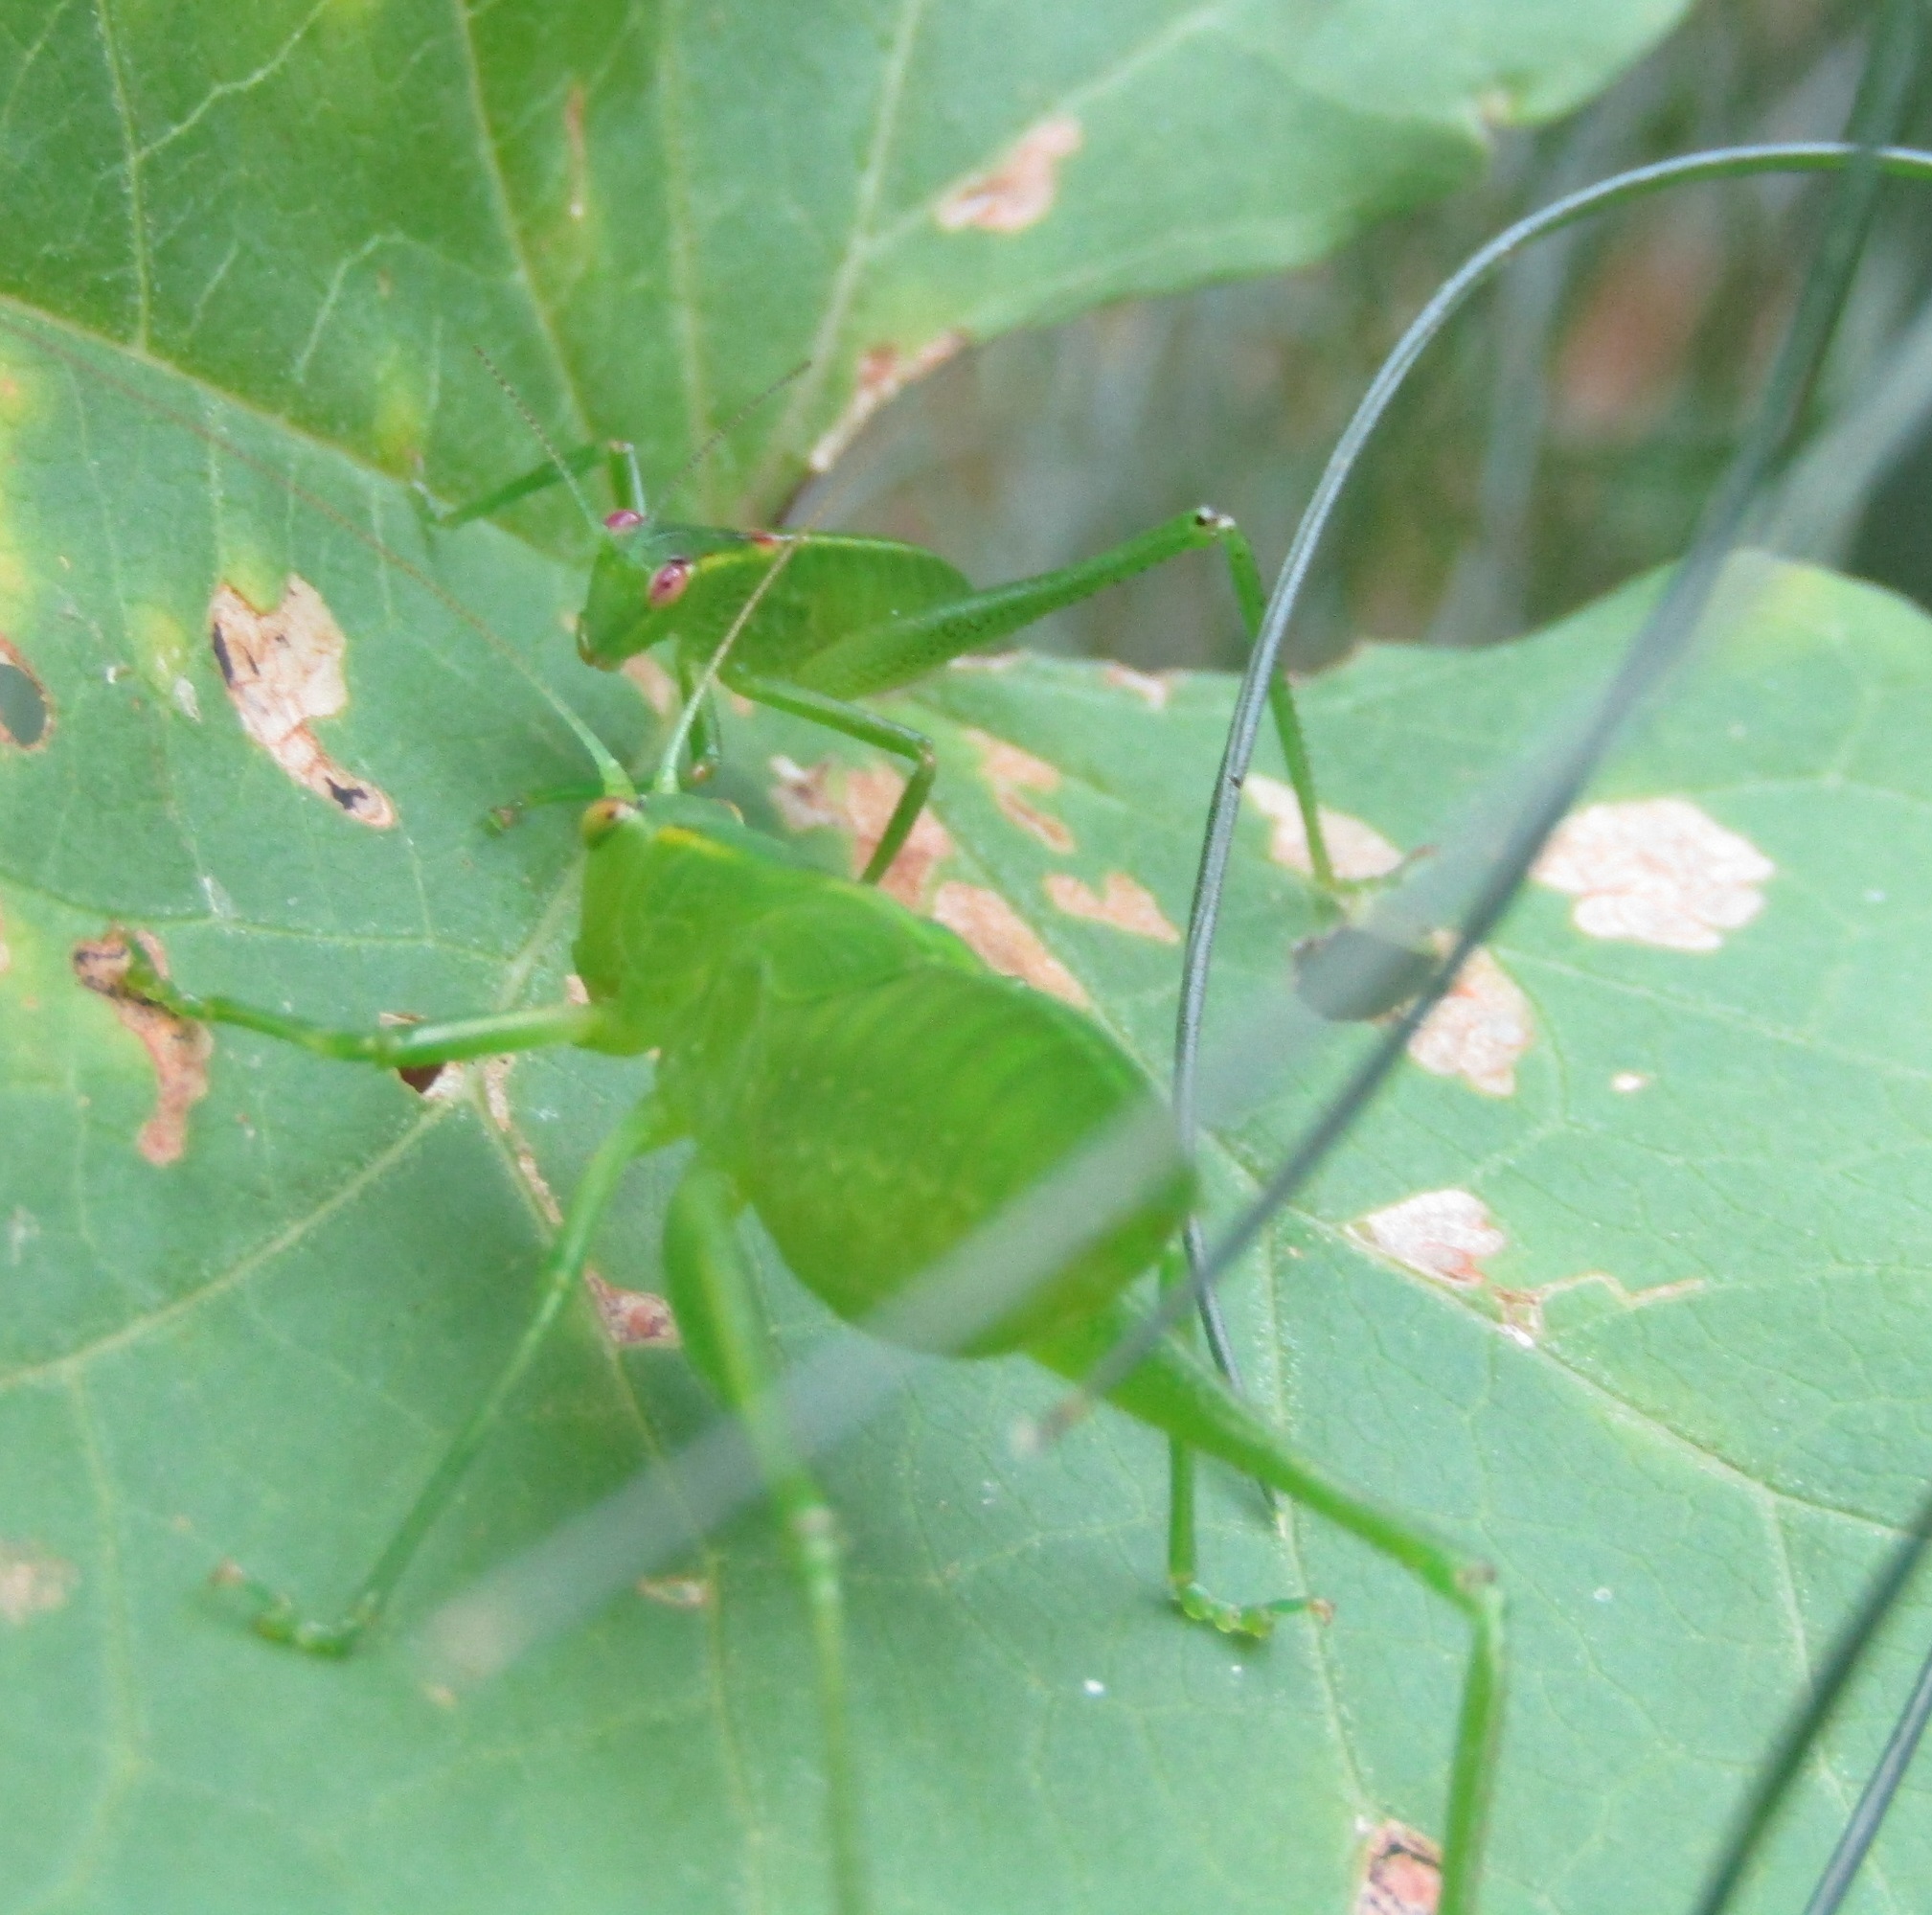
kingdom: Animalia
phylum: Arthropoda
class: Insecta
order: Orthoptera
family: Tettigoniidae
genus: Caedicia
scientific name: Caedicia simplex
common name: Common garden katydid
